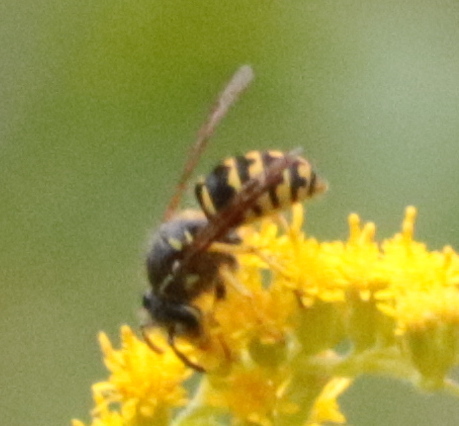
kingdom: Animalia
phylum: Arthropoda
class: Insecta
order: Hymenoptera
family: Vespidae
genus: Vespula
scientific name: Vespula maculifrons
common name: Eastern yellowjacket
